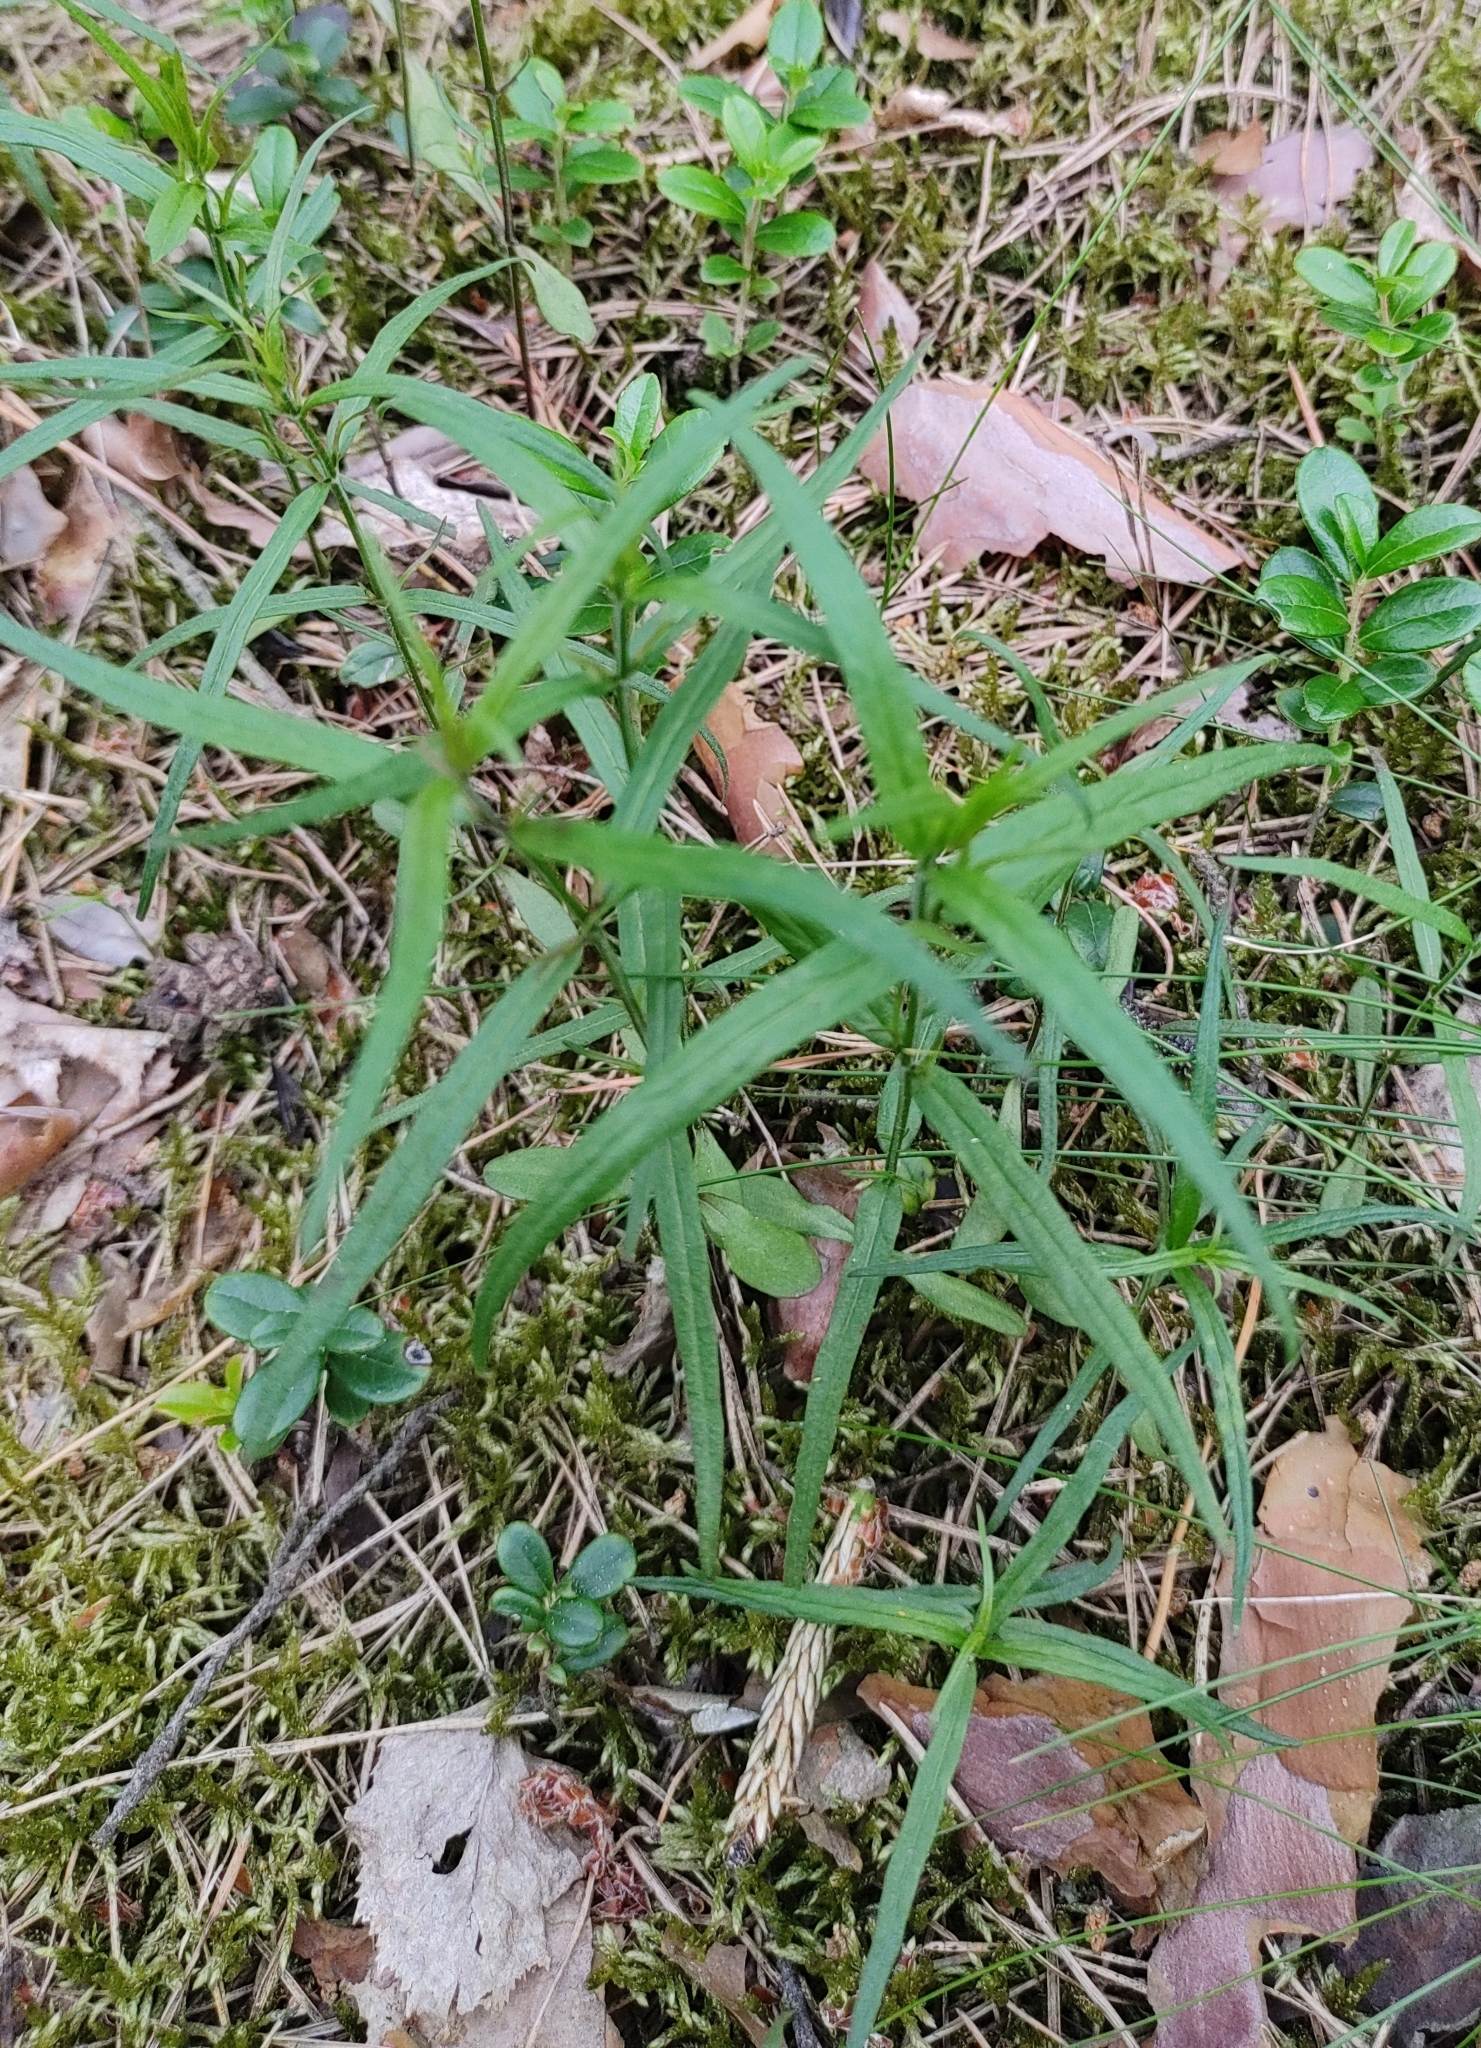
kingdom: Plantae
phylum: Tracheophyta
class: Magnoliopsida
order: Caryophyllales
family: Caryophyllaceae
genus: Rabelera
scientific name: Rabelera holostea
